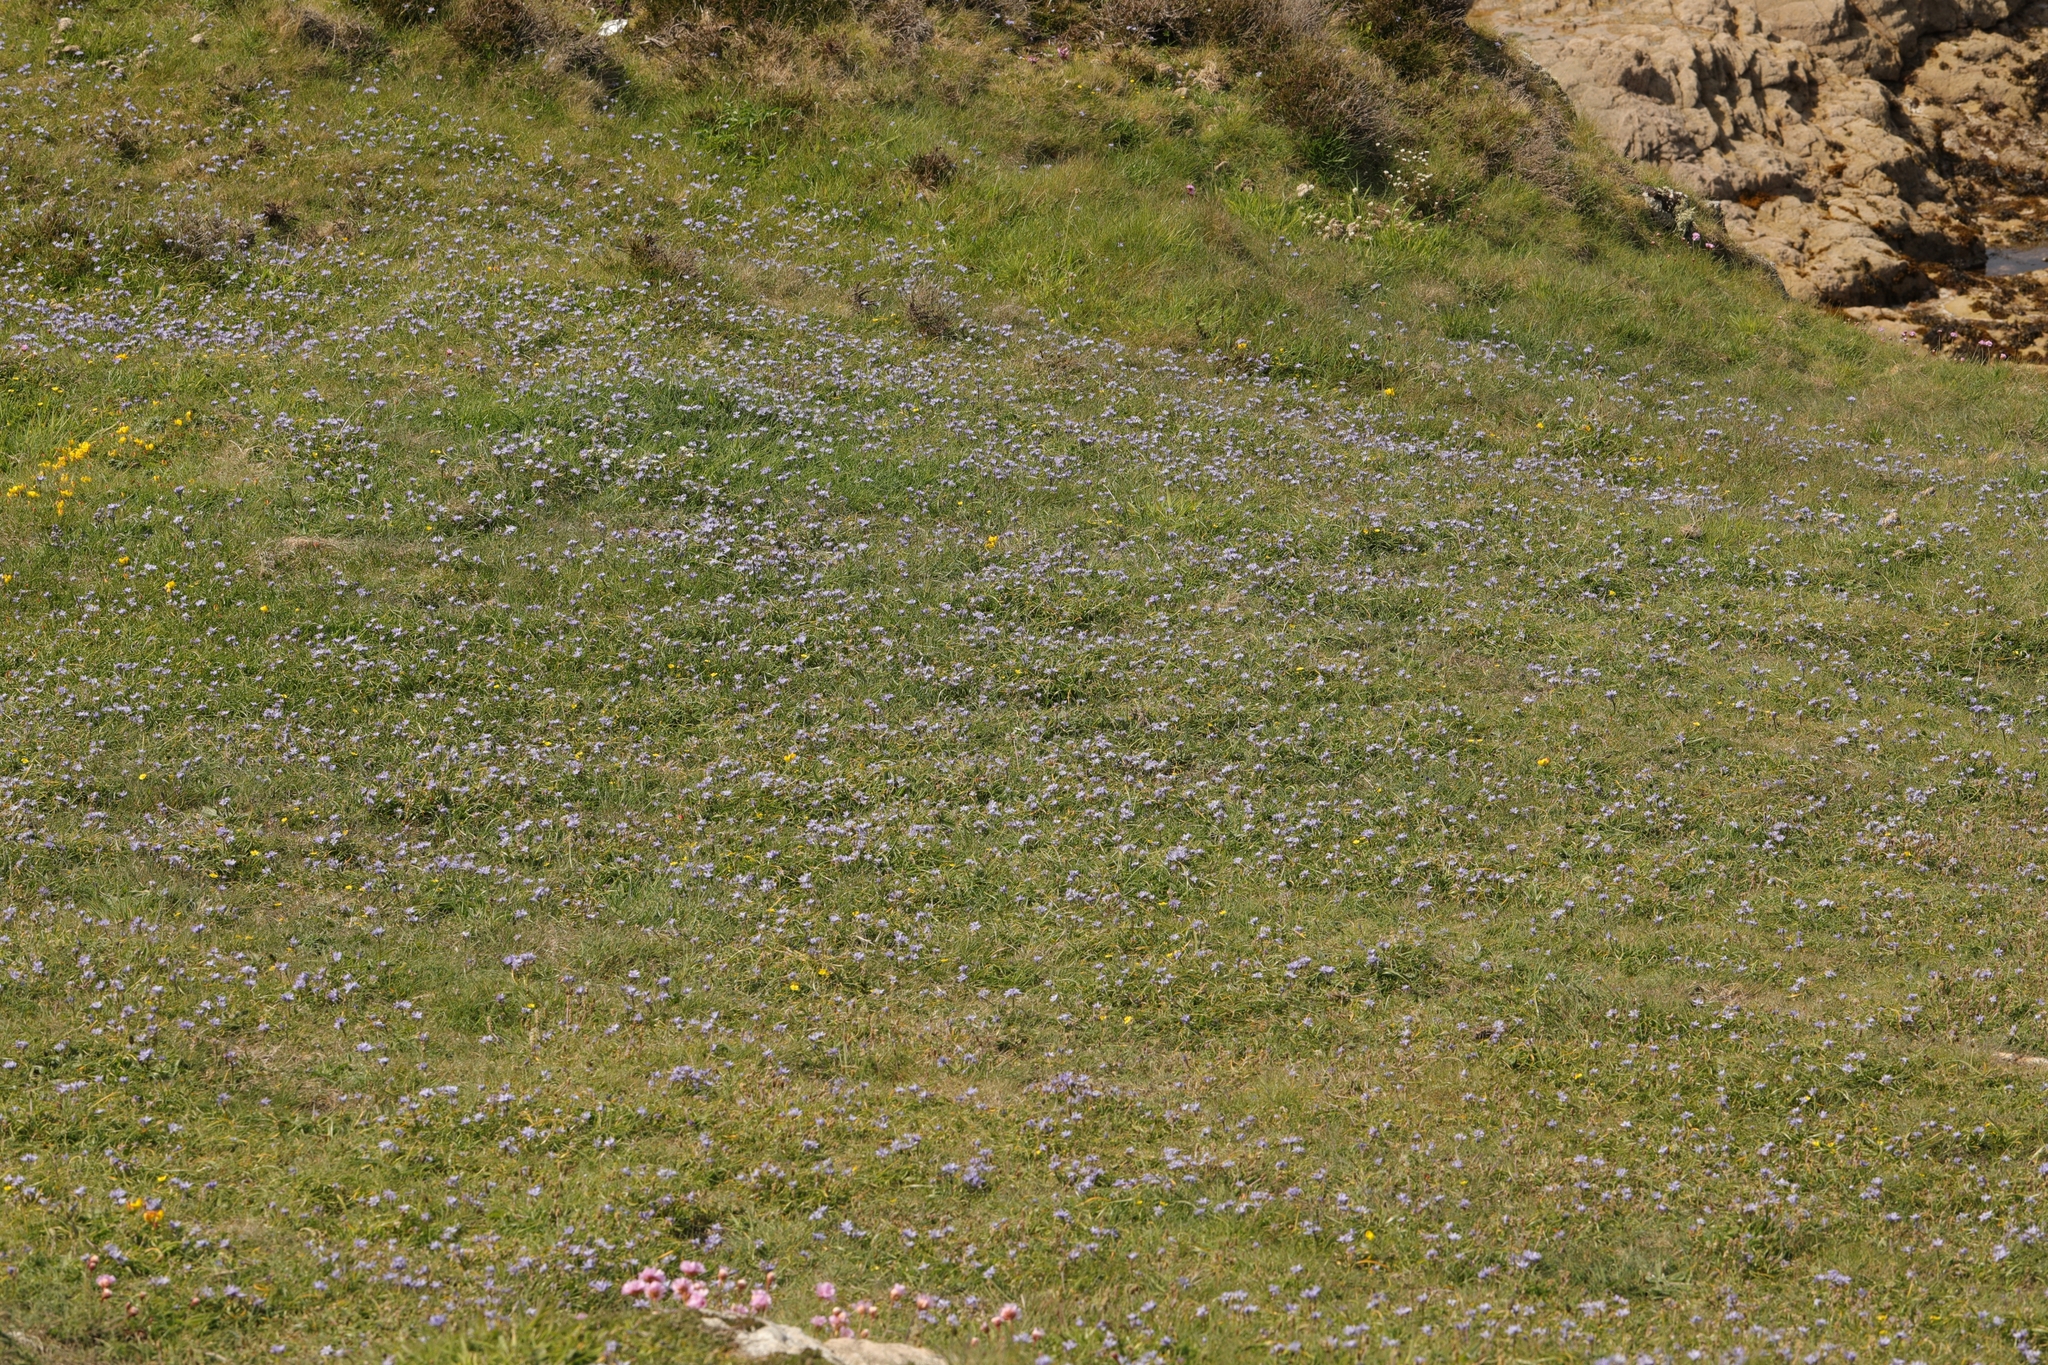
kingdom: Plantae
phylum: Tracheophyta
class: Liliopsida
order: Asparagales
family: Asparagaceae
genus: Scilla
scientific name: Scilla verna
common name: Spring squill
